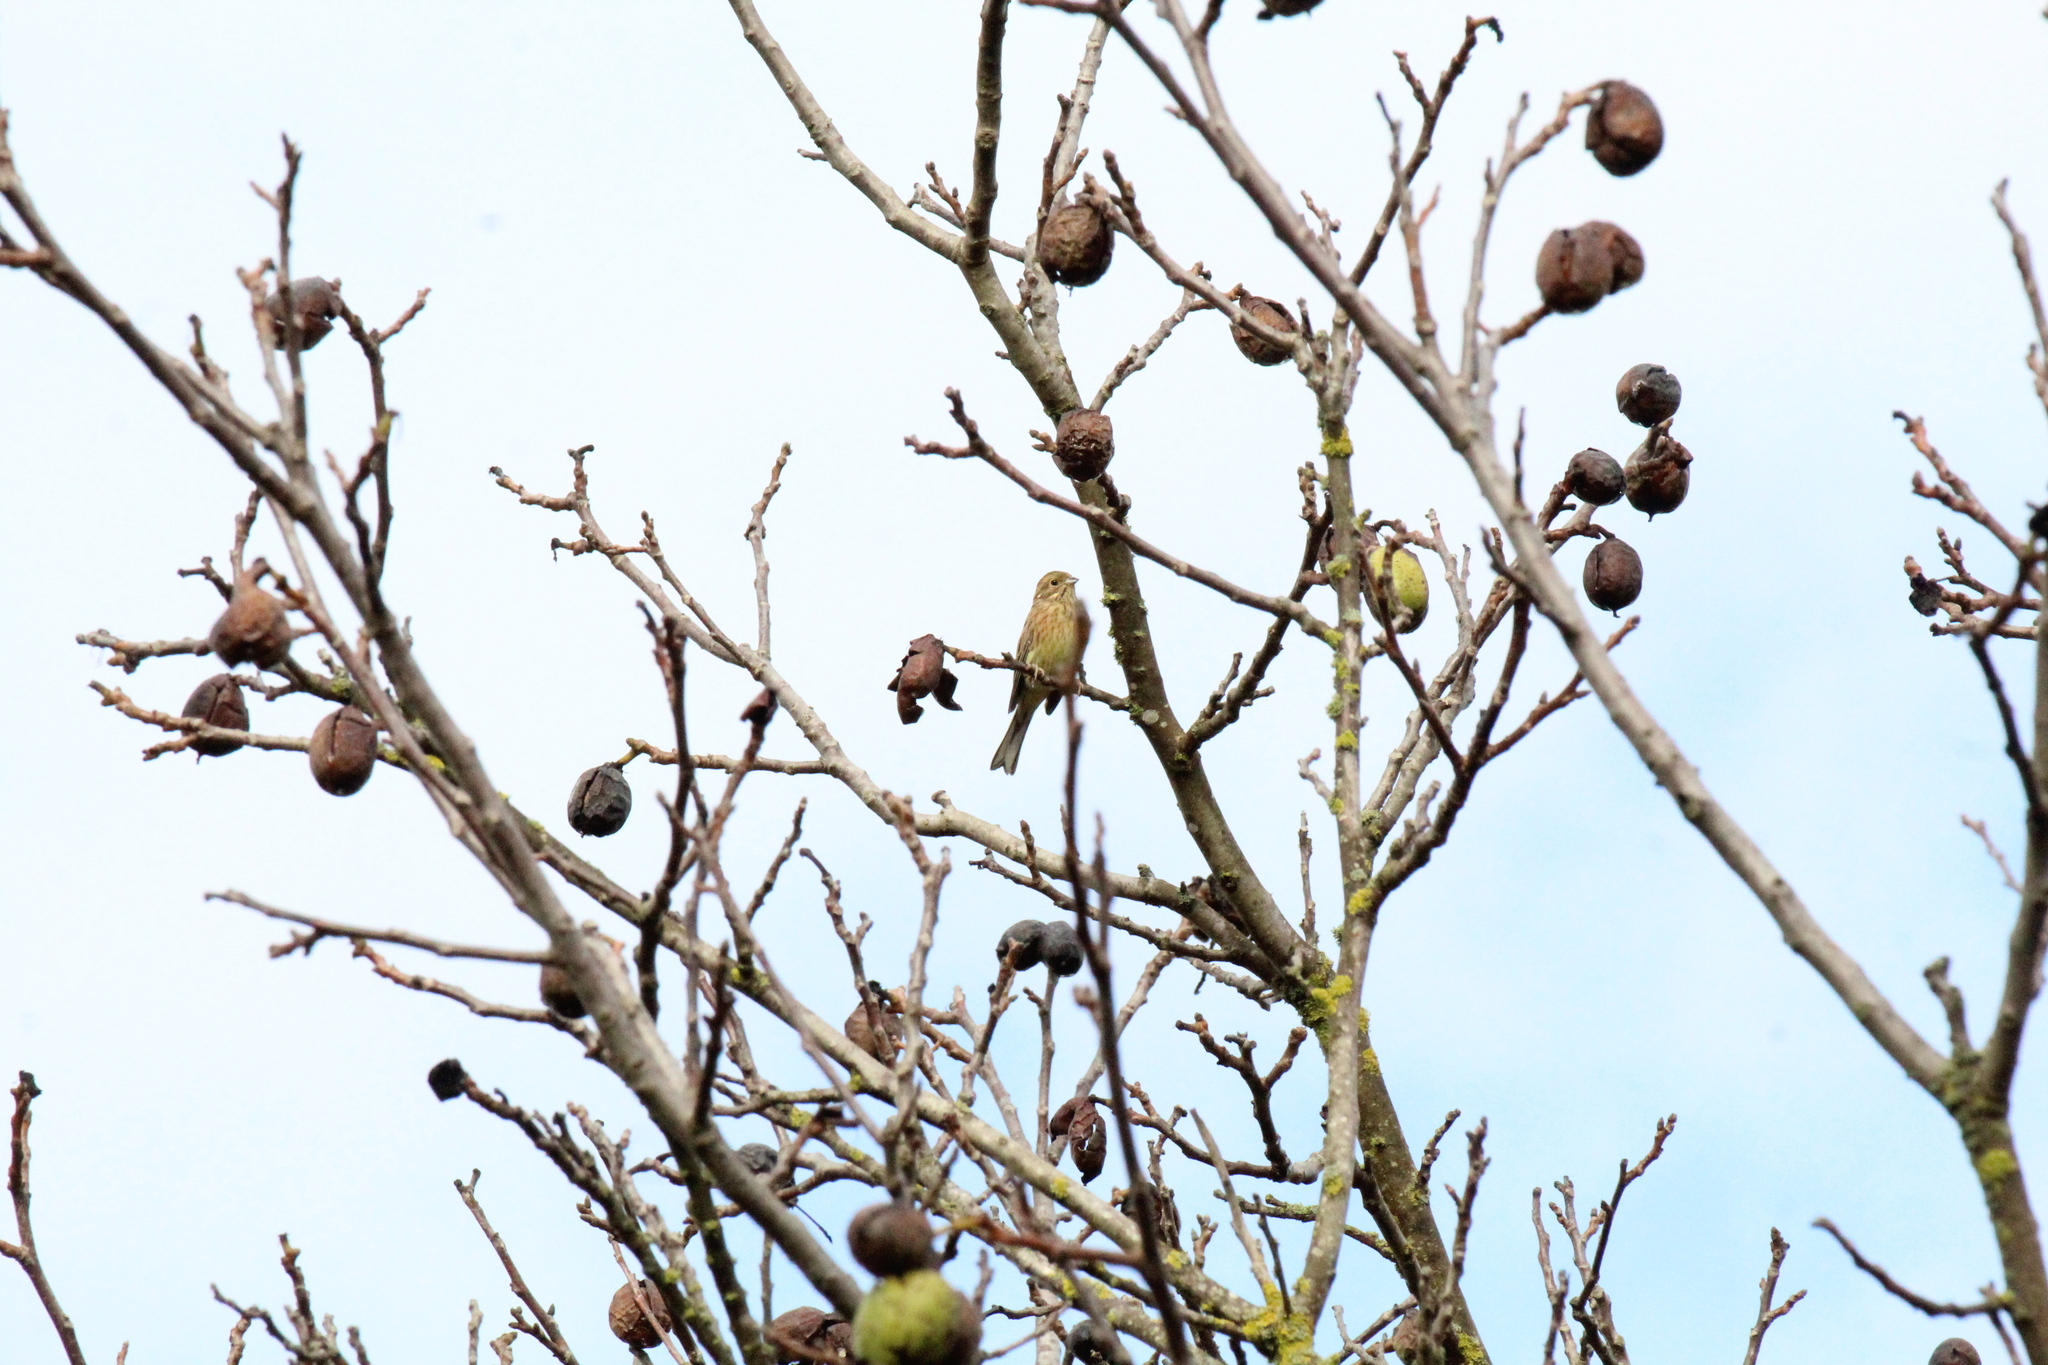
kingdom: Animalia
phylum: Chordata
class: Aves
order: Passeriformes
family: Emberizidae
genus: Emberiza
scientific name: Emberiza citrinella
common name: Yellowhammer
